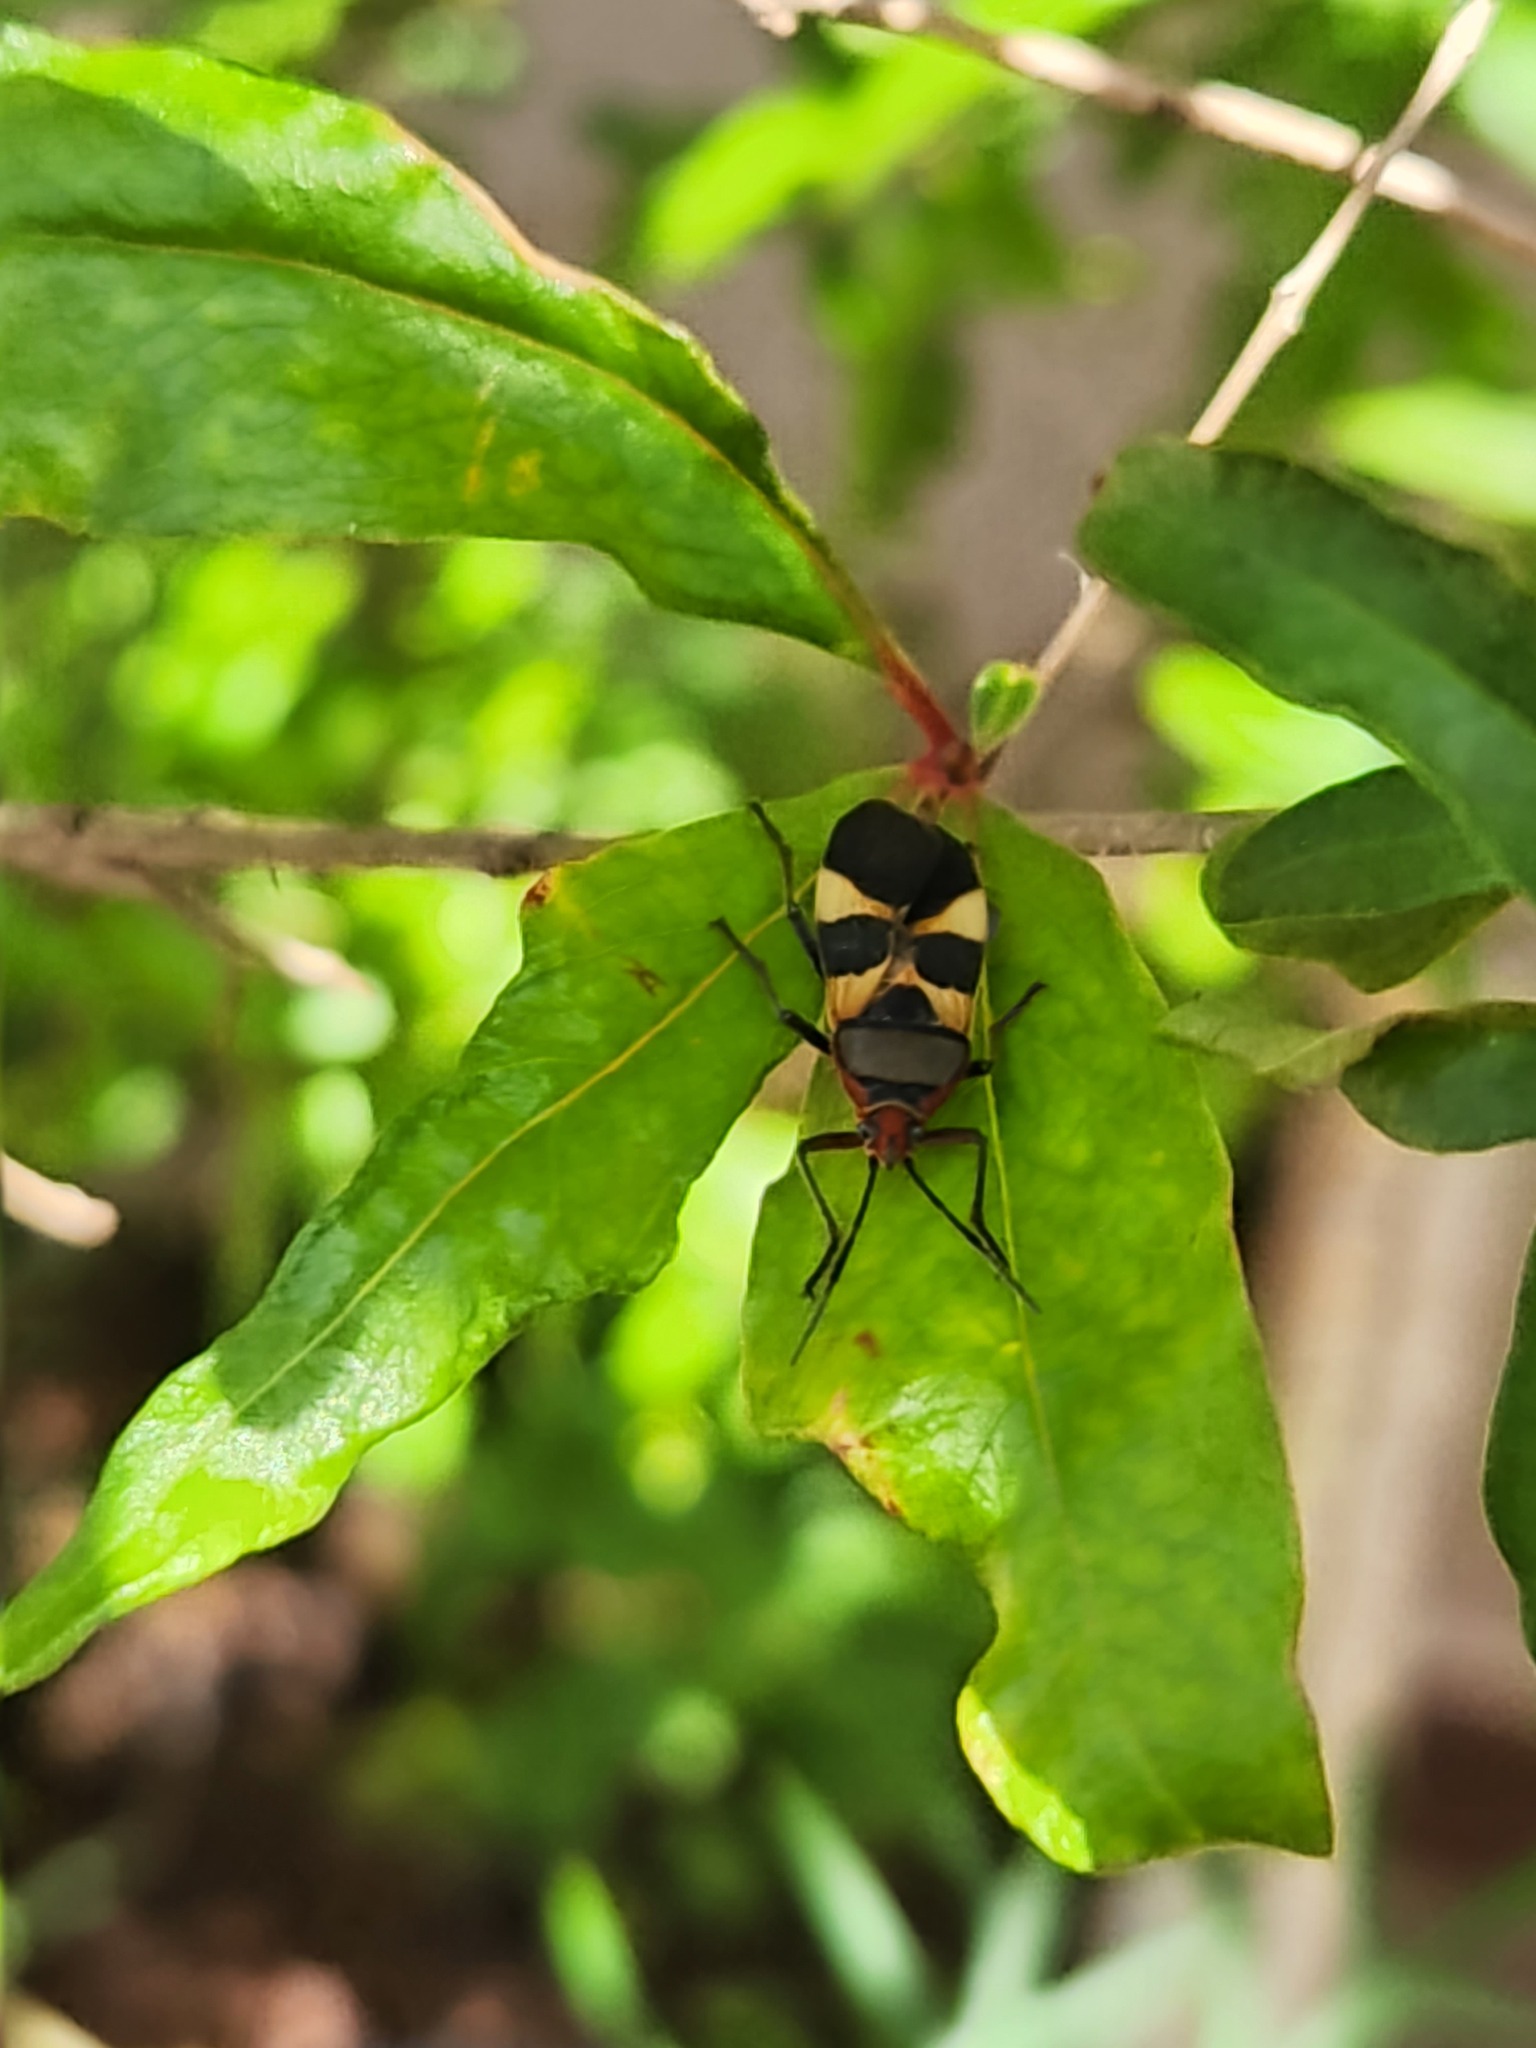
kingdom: Animalia
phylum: Arthropoda
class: Insecta
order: Hemiptera
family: Lygaeidae
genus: Oncopeltus
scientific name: Oncopeltus unifasciatellus
